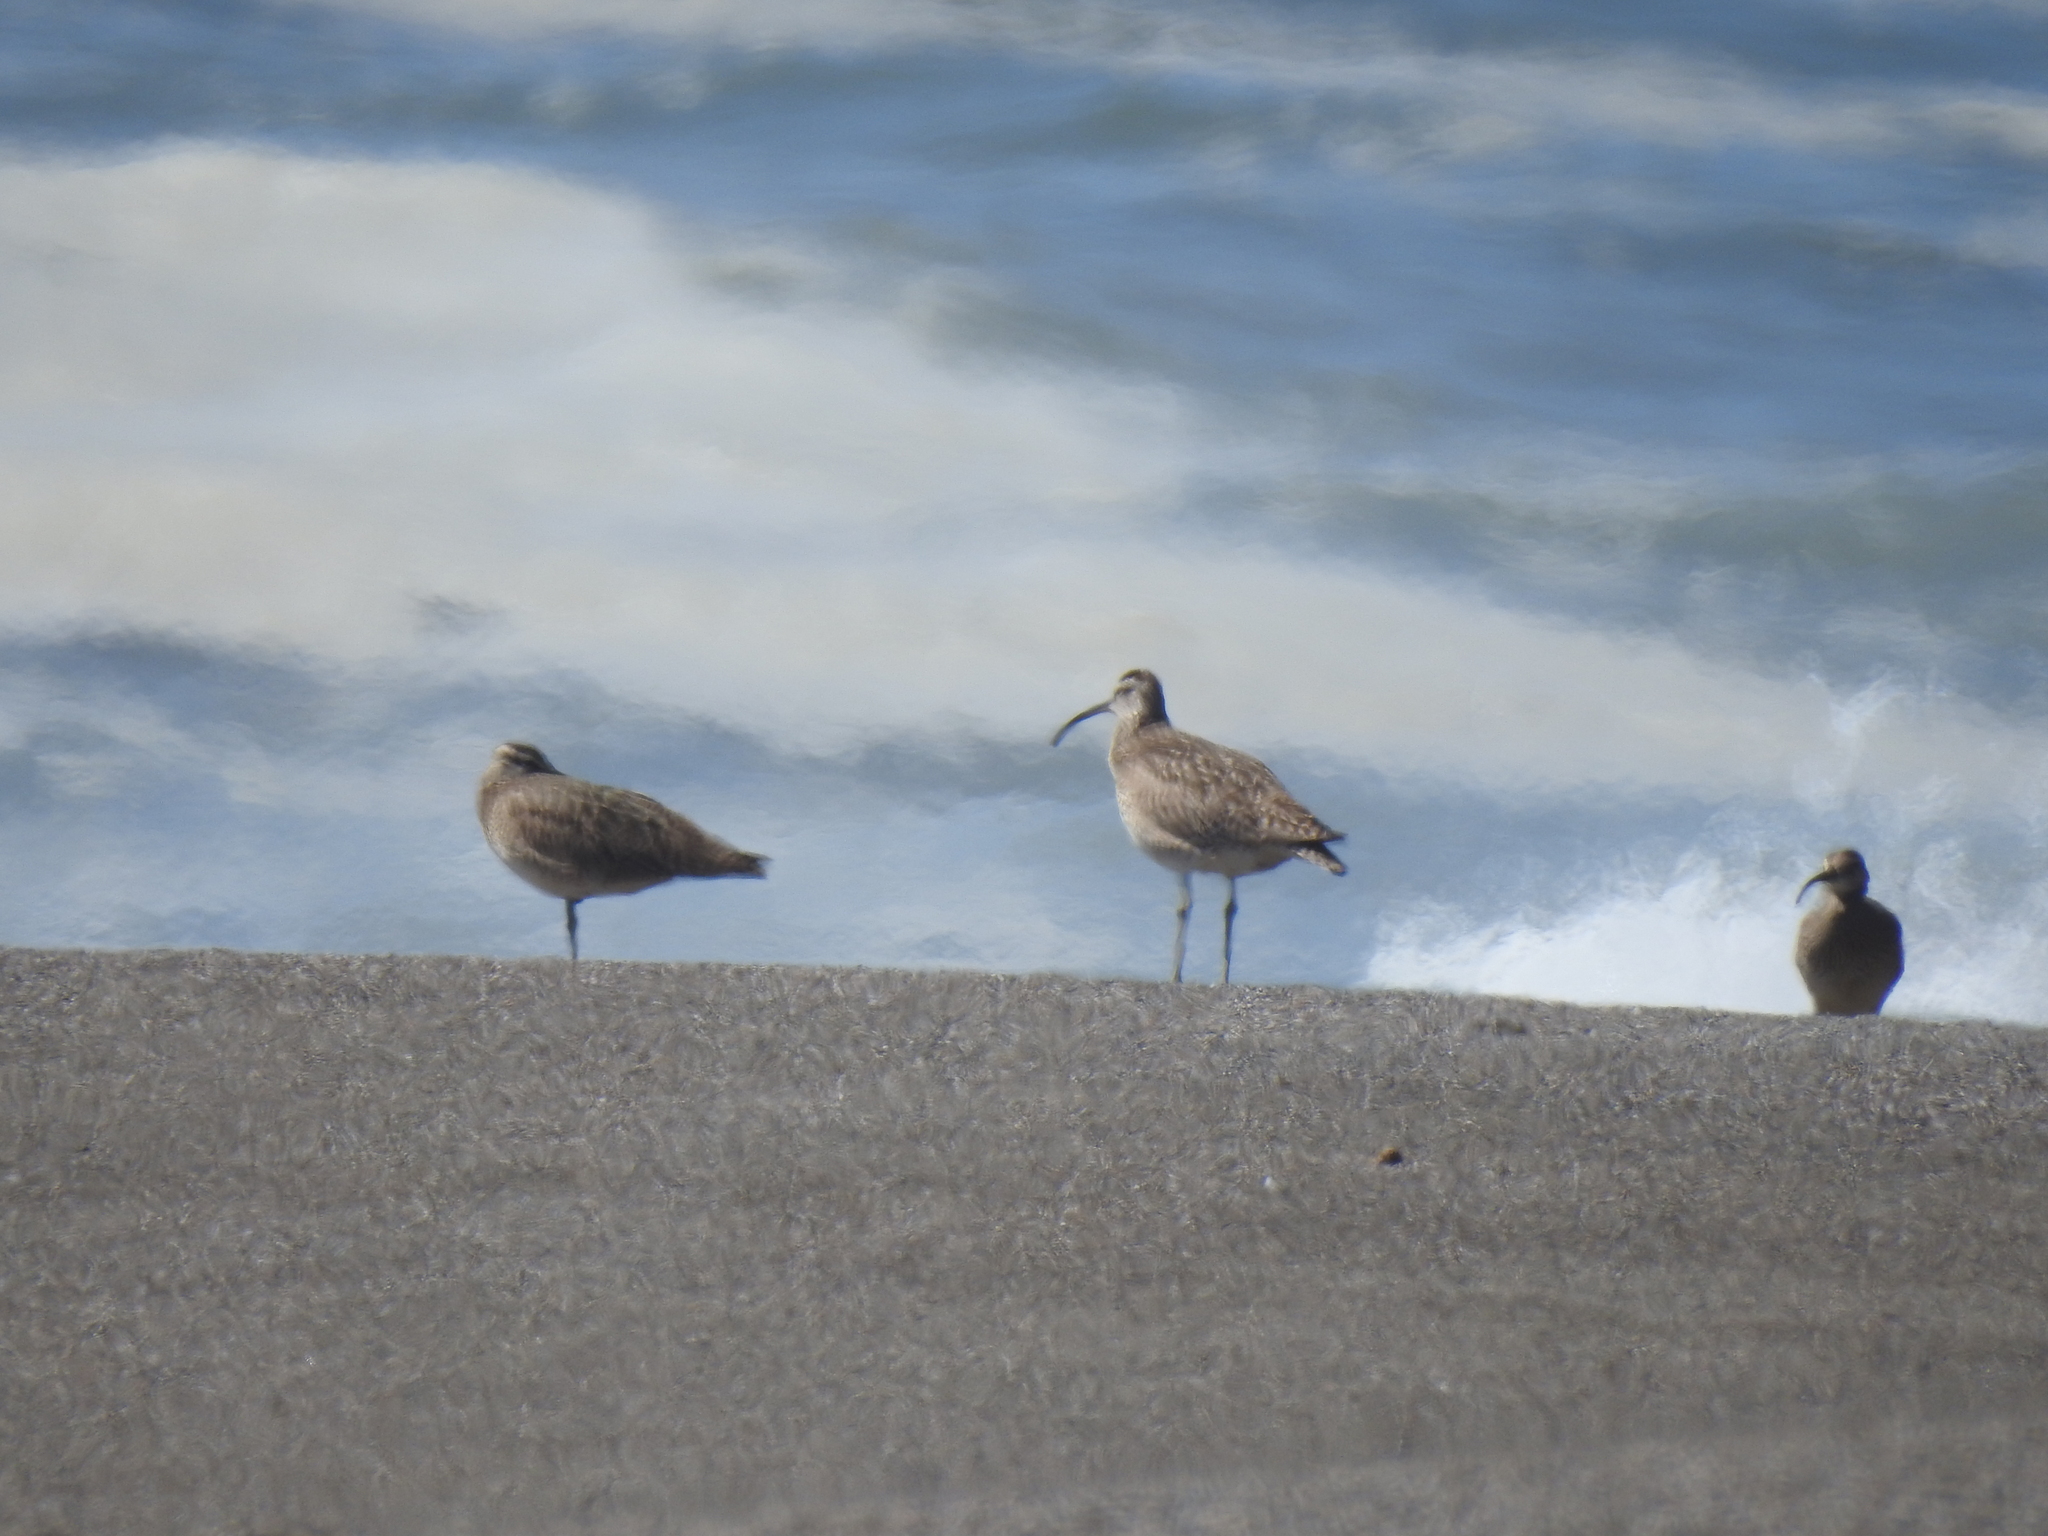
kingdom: Animalia
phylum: Chordata
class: Aves
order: Charadriiformes
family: Scolopacidae
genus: Numenius
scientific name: Numenius phaeopus
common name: Whimbrel
